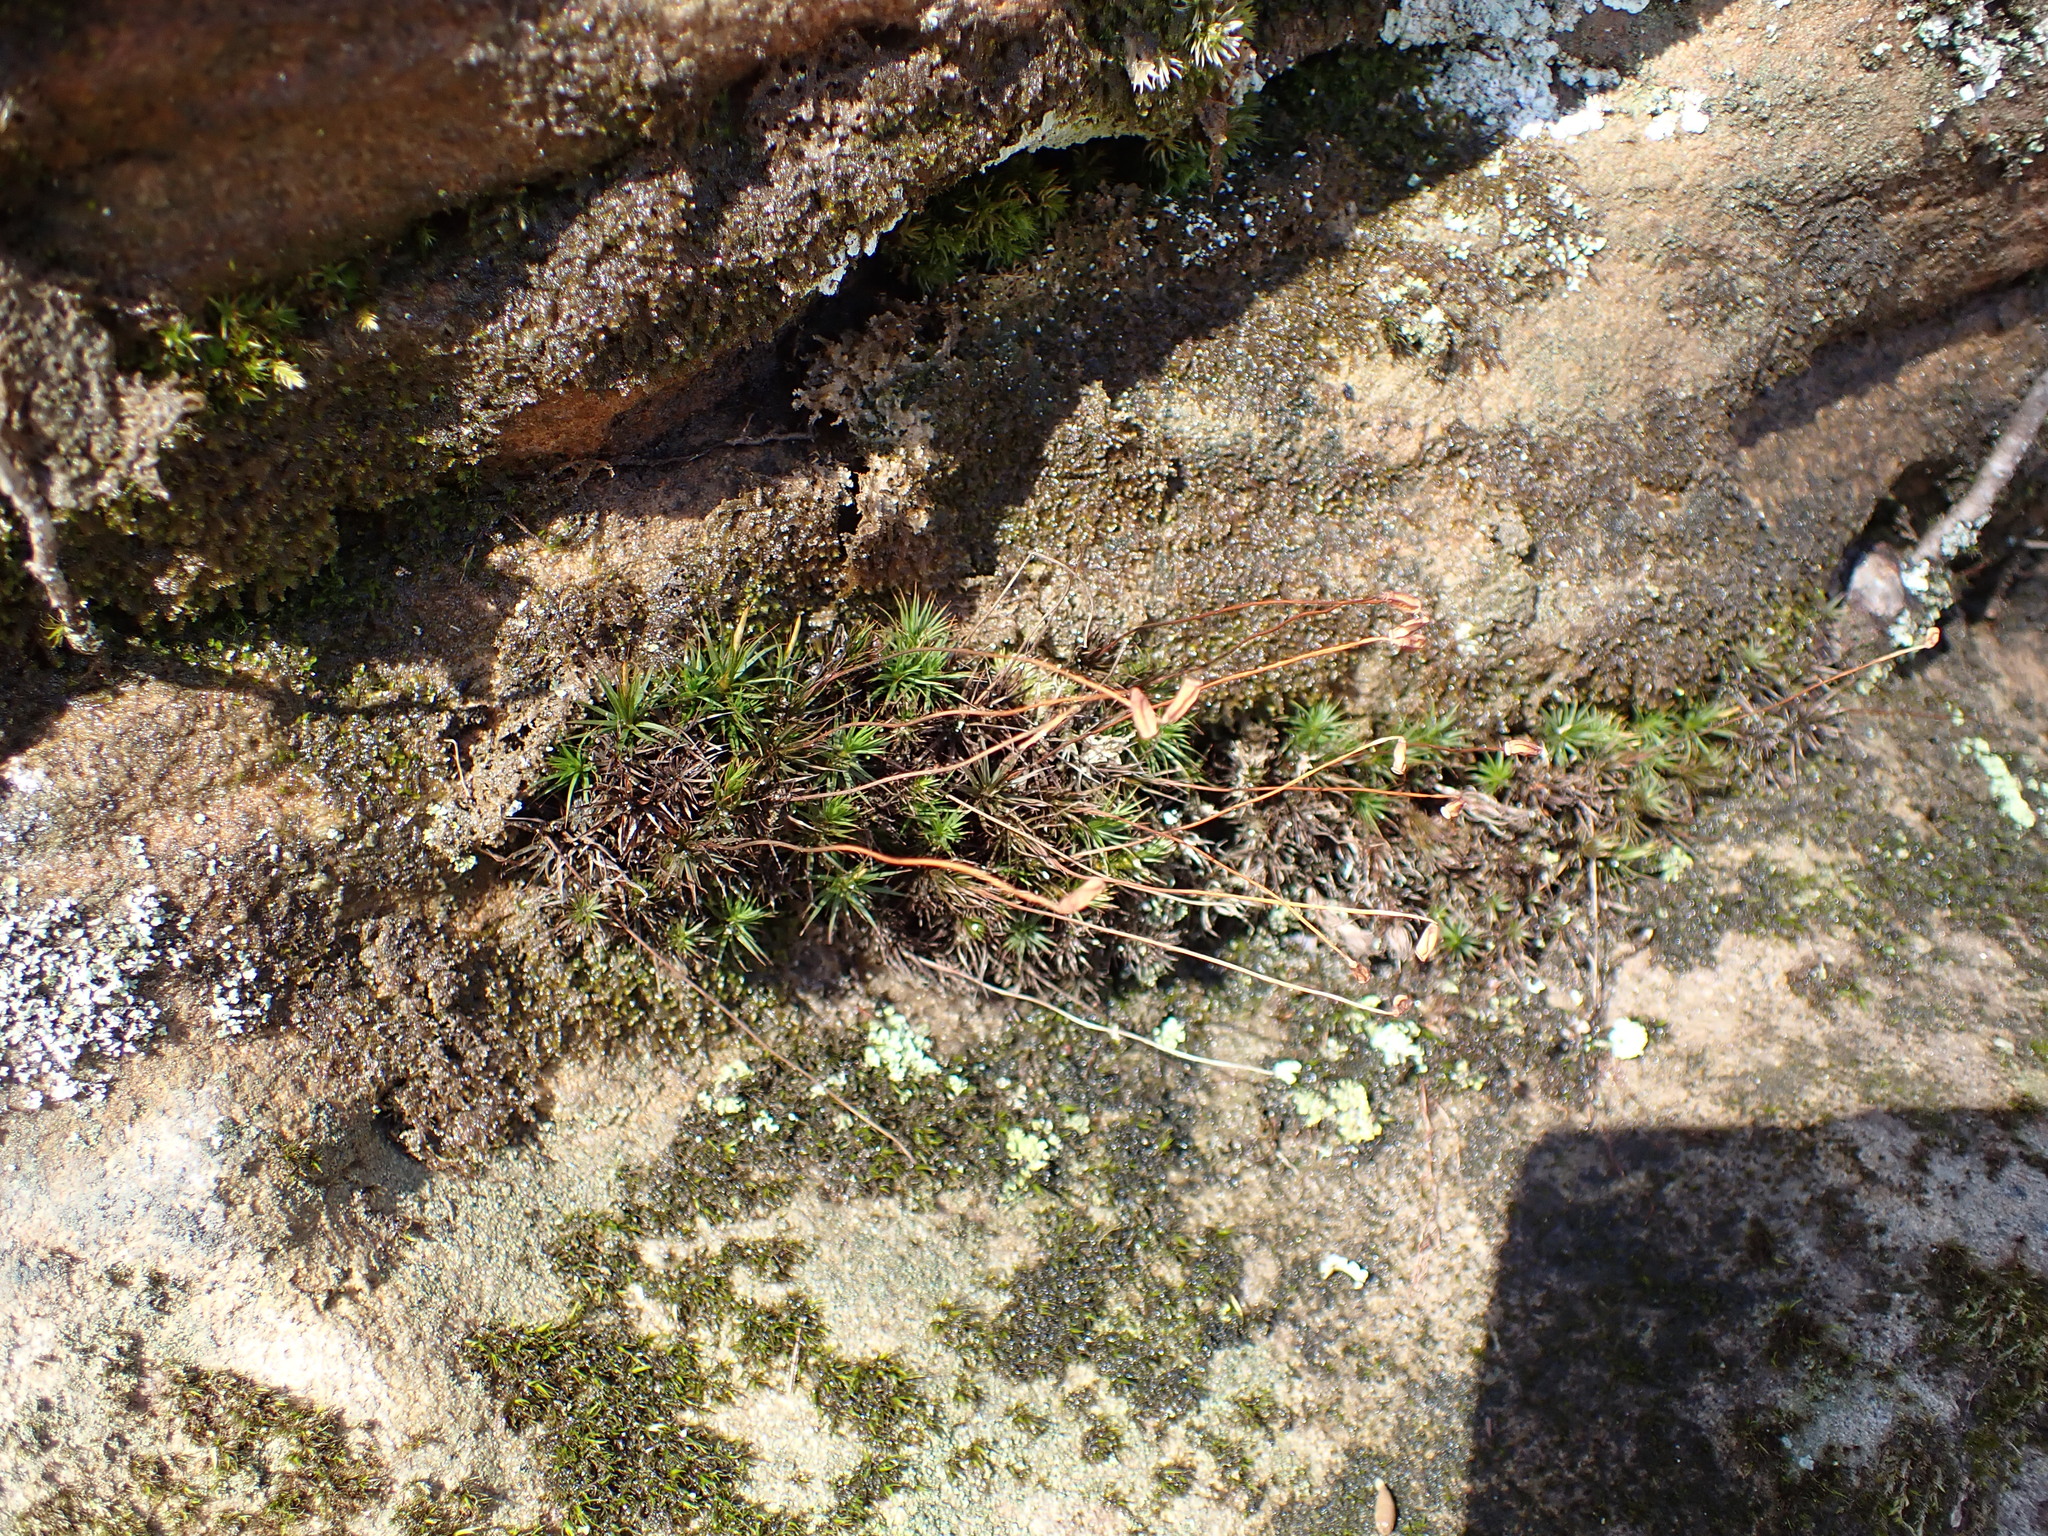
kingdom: Plantae
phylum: Bryophyta
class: Polytrichopsida
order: Polytrichales
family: Polytrichaceae
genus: Polytrichum
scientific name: Polytrichum ohioense
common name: Ohio polytrichum moss
